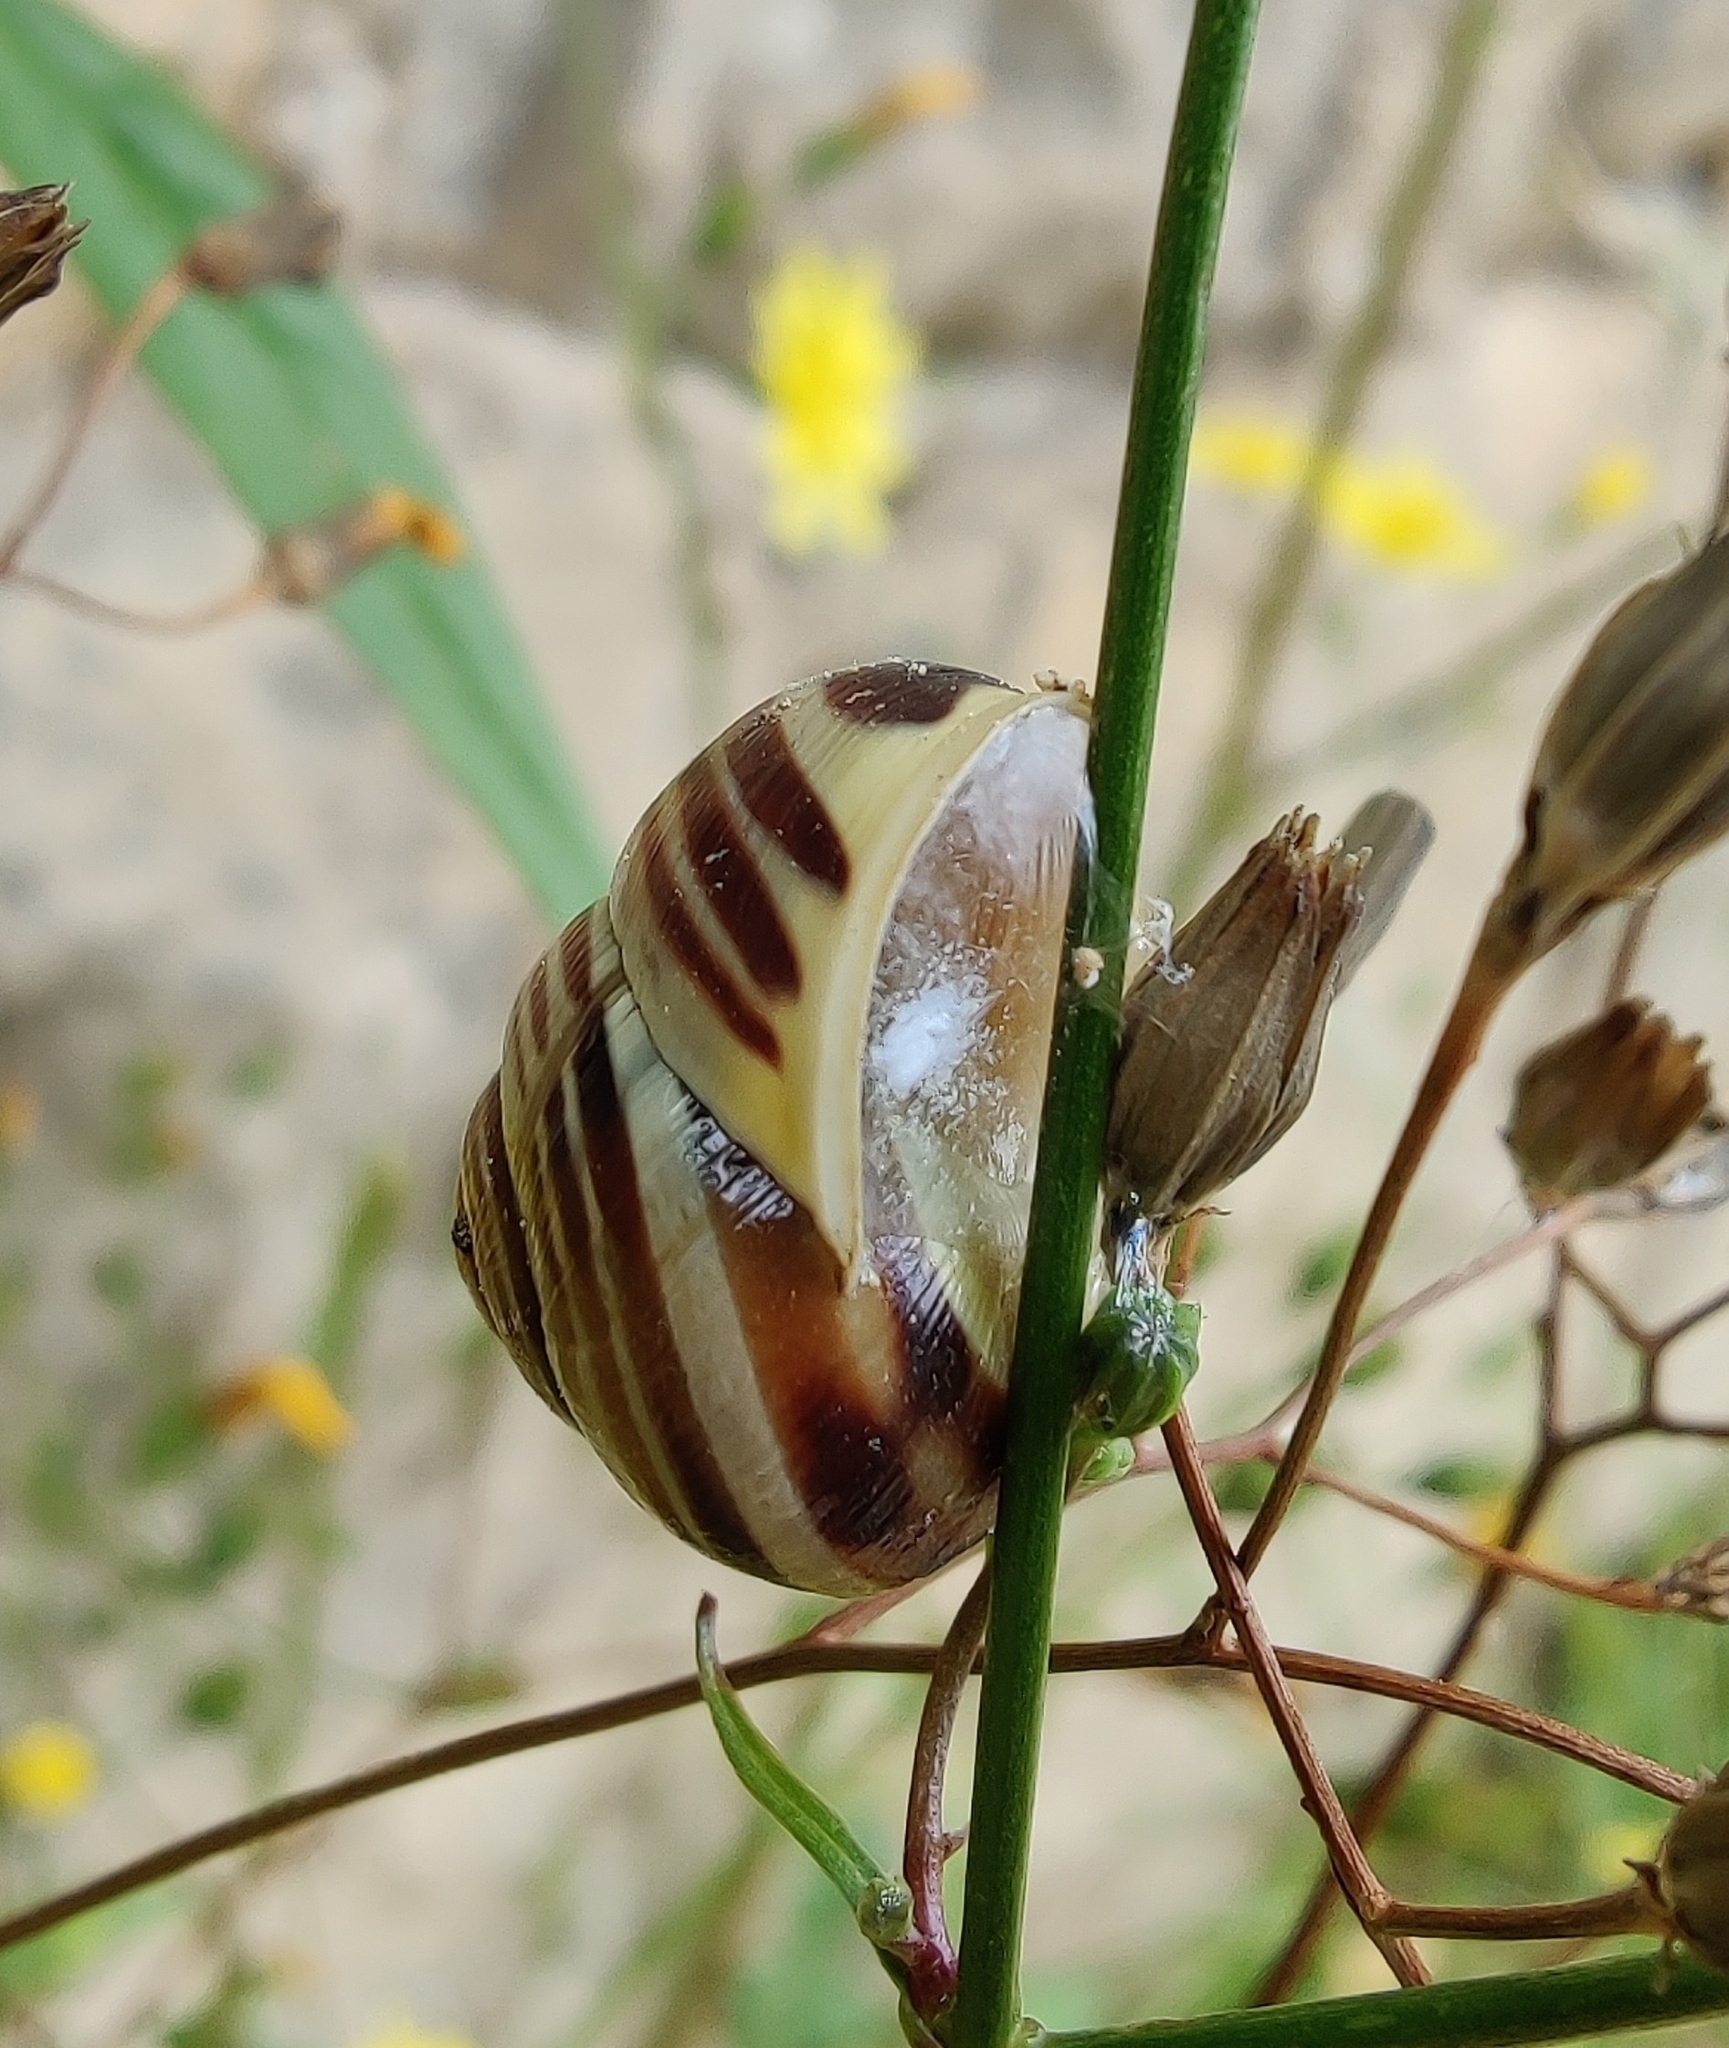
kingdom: Animalia
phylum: Mollusca
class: Gastropoda
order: Stylommatophora
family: Helicidae
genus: Cepaea
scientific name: Cepaea hortensis
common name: White-lip gardensnail
